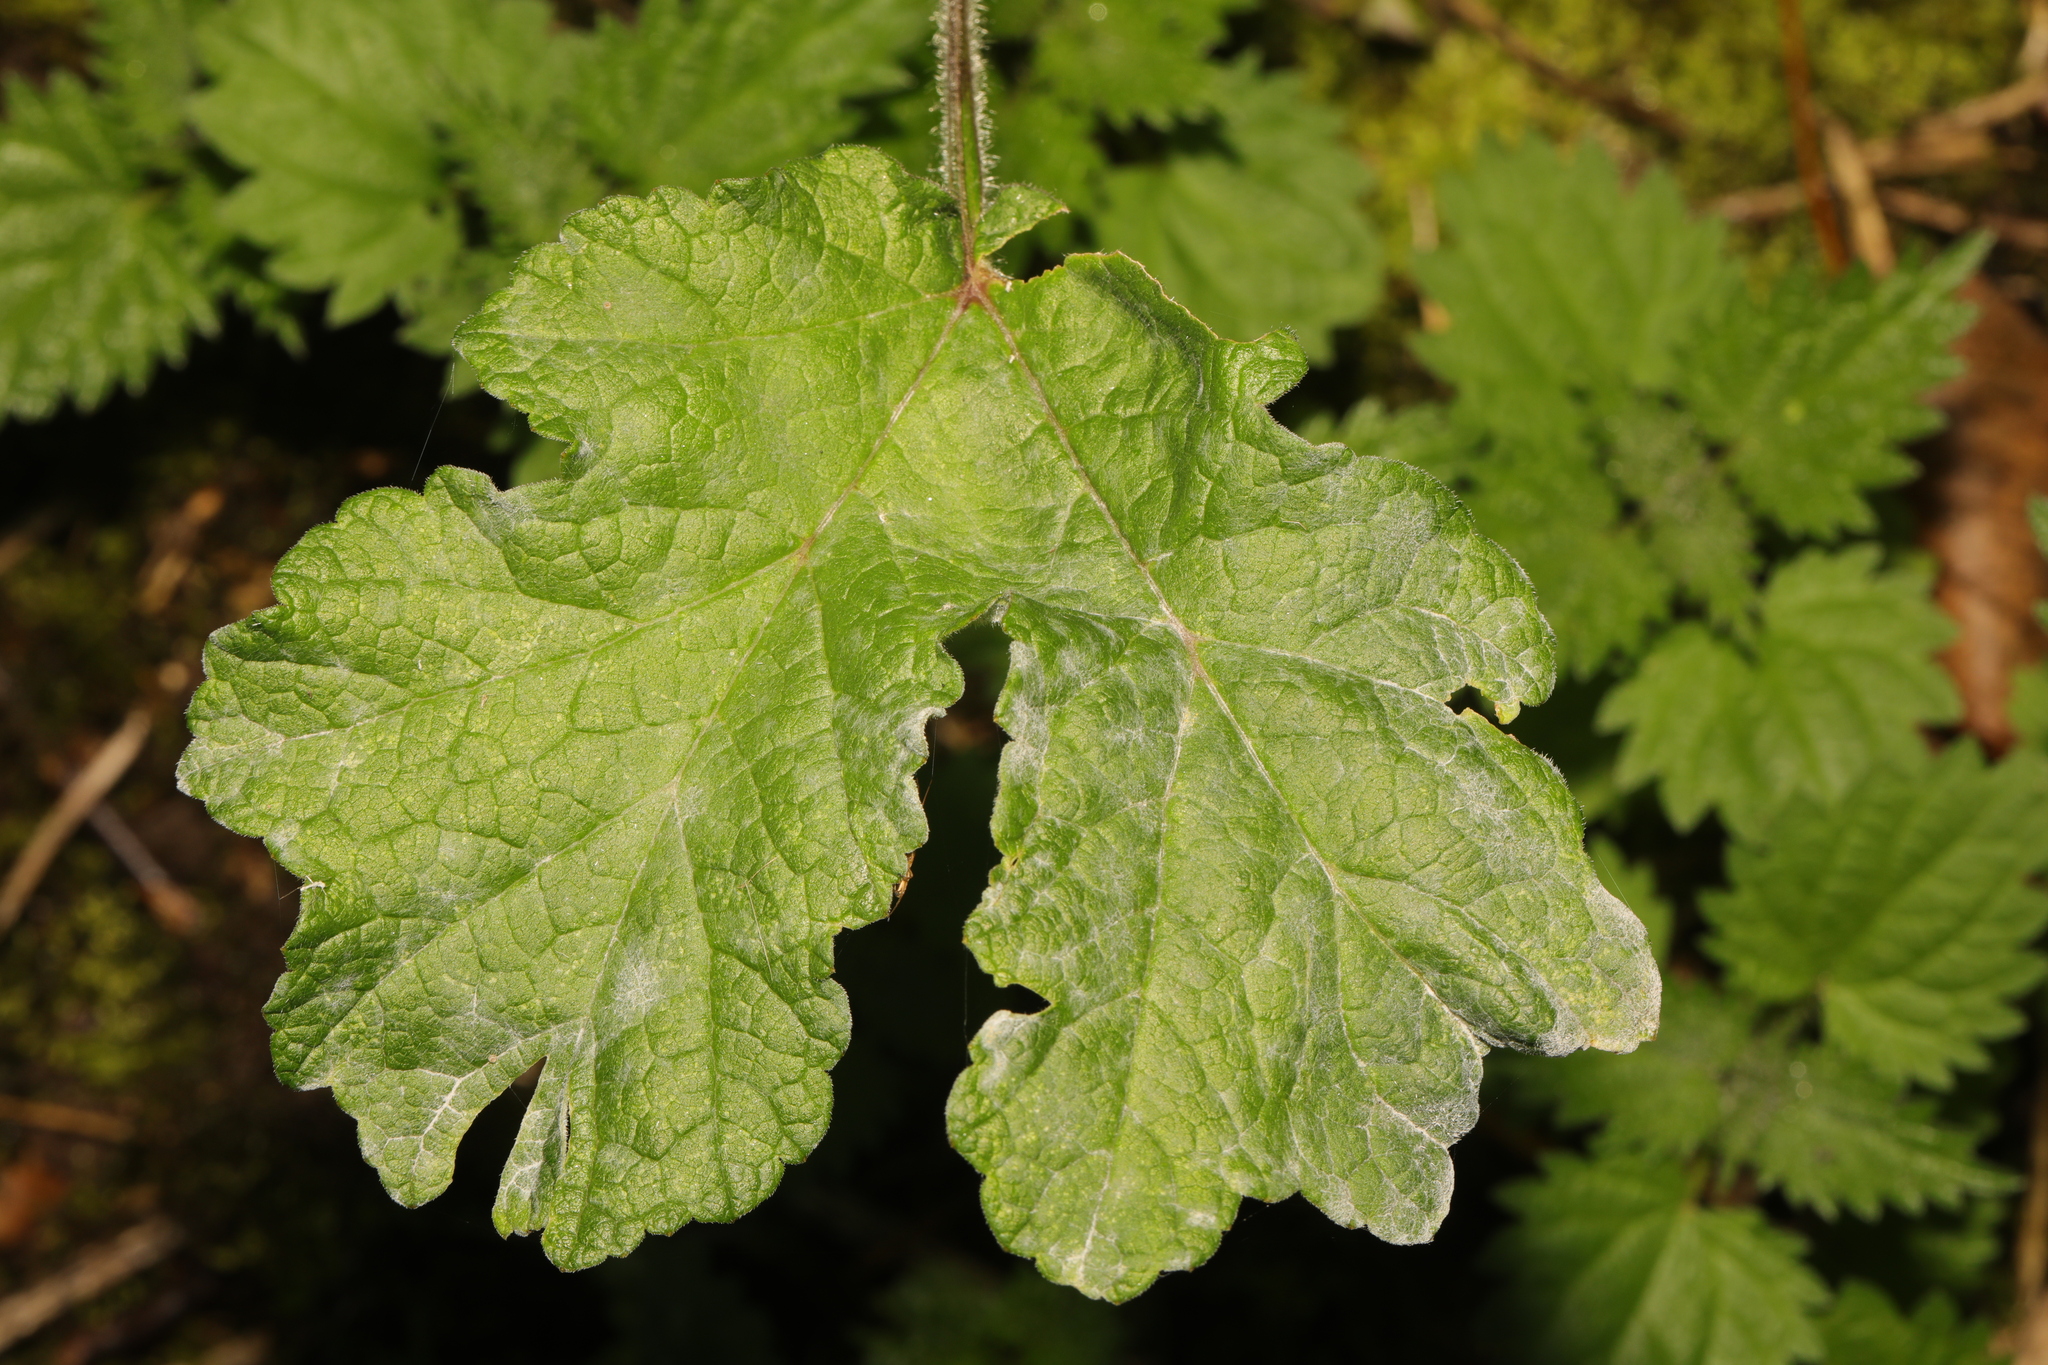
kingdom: Plantae
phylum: Tracheophyta
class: Magnoliopsida
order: Apiales
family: Apiaceae
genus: Heracleum
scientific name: Heracleum sphondylium
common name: Hogweed
